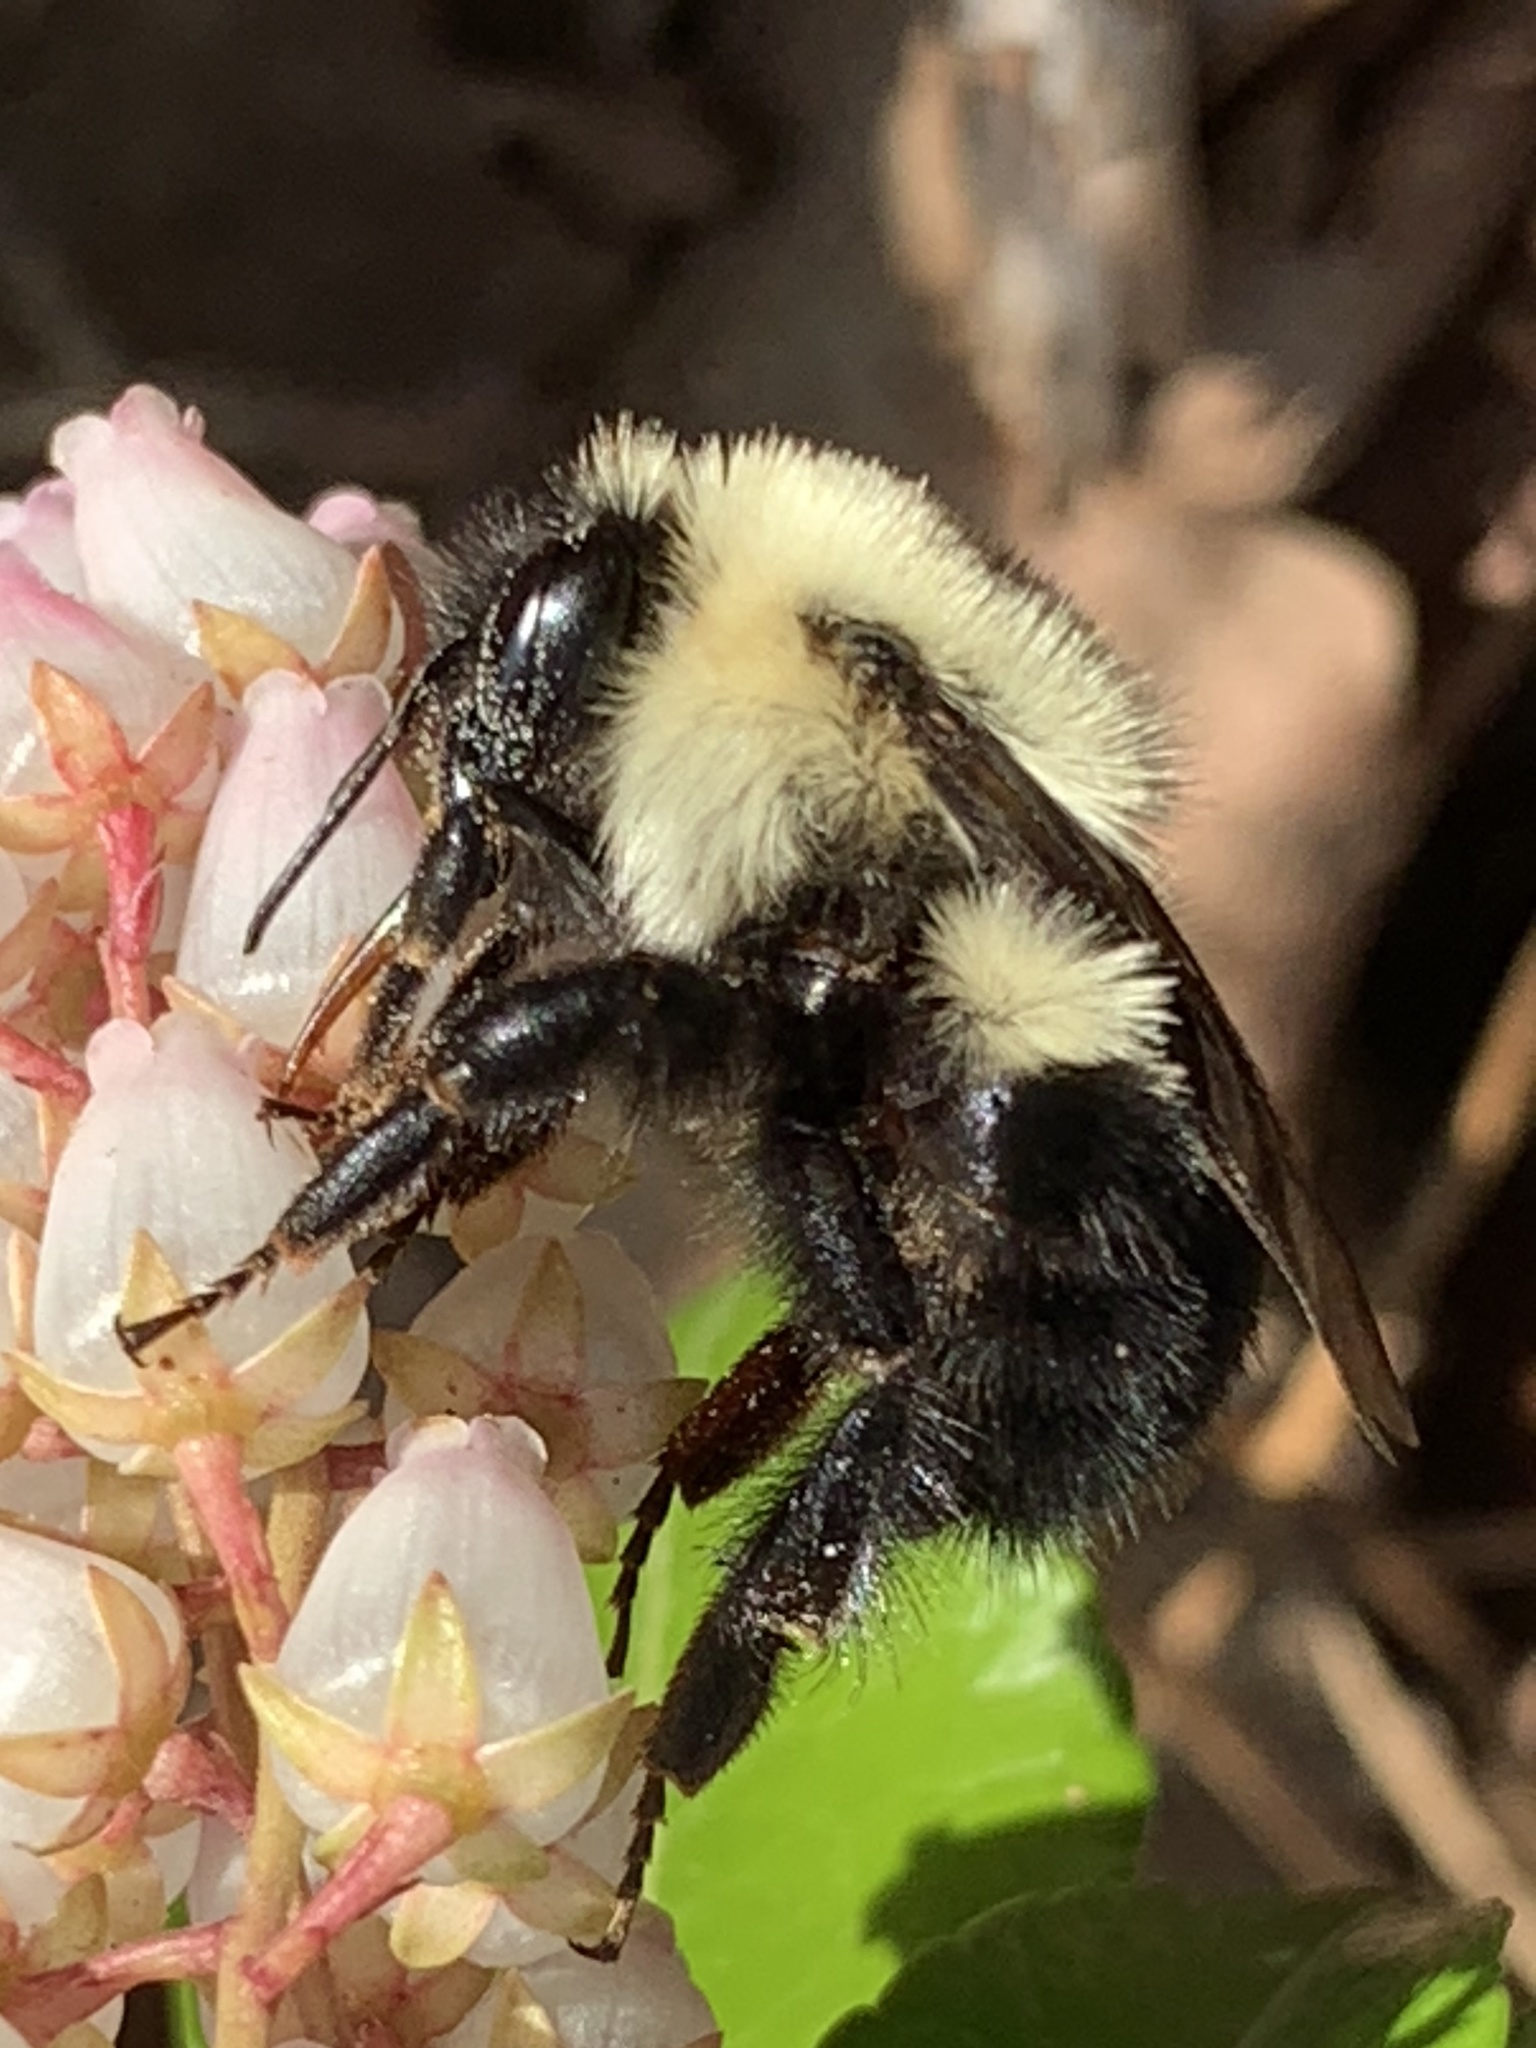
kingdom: Animalia
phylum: Arthropoda
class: Insecta
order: Hymenoptera
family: Apidae
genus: Bombus
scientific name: Bombus bimaculatus
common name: Two-spotted bumble bee
